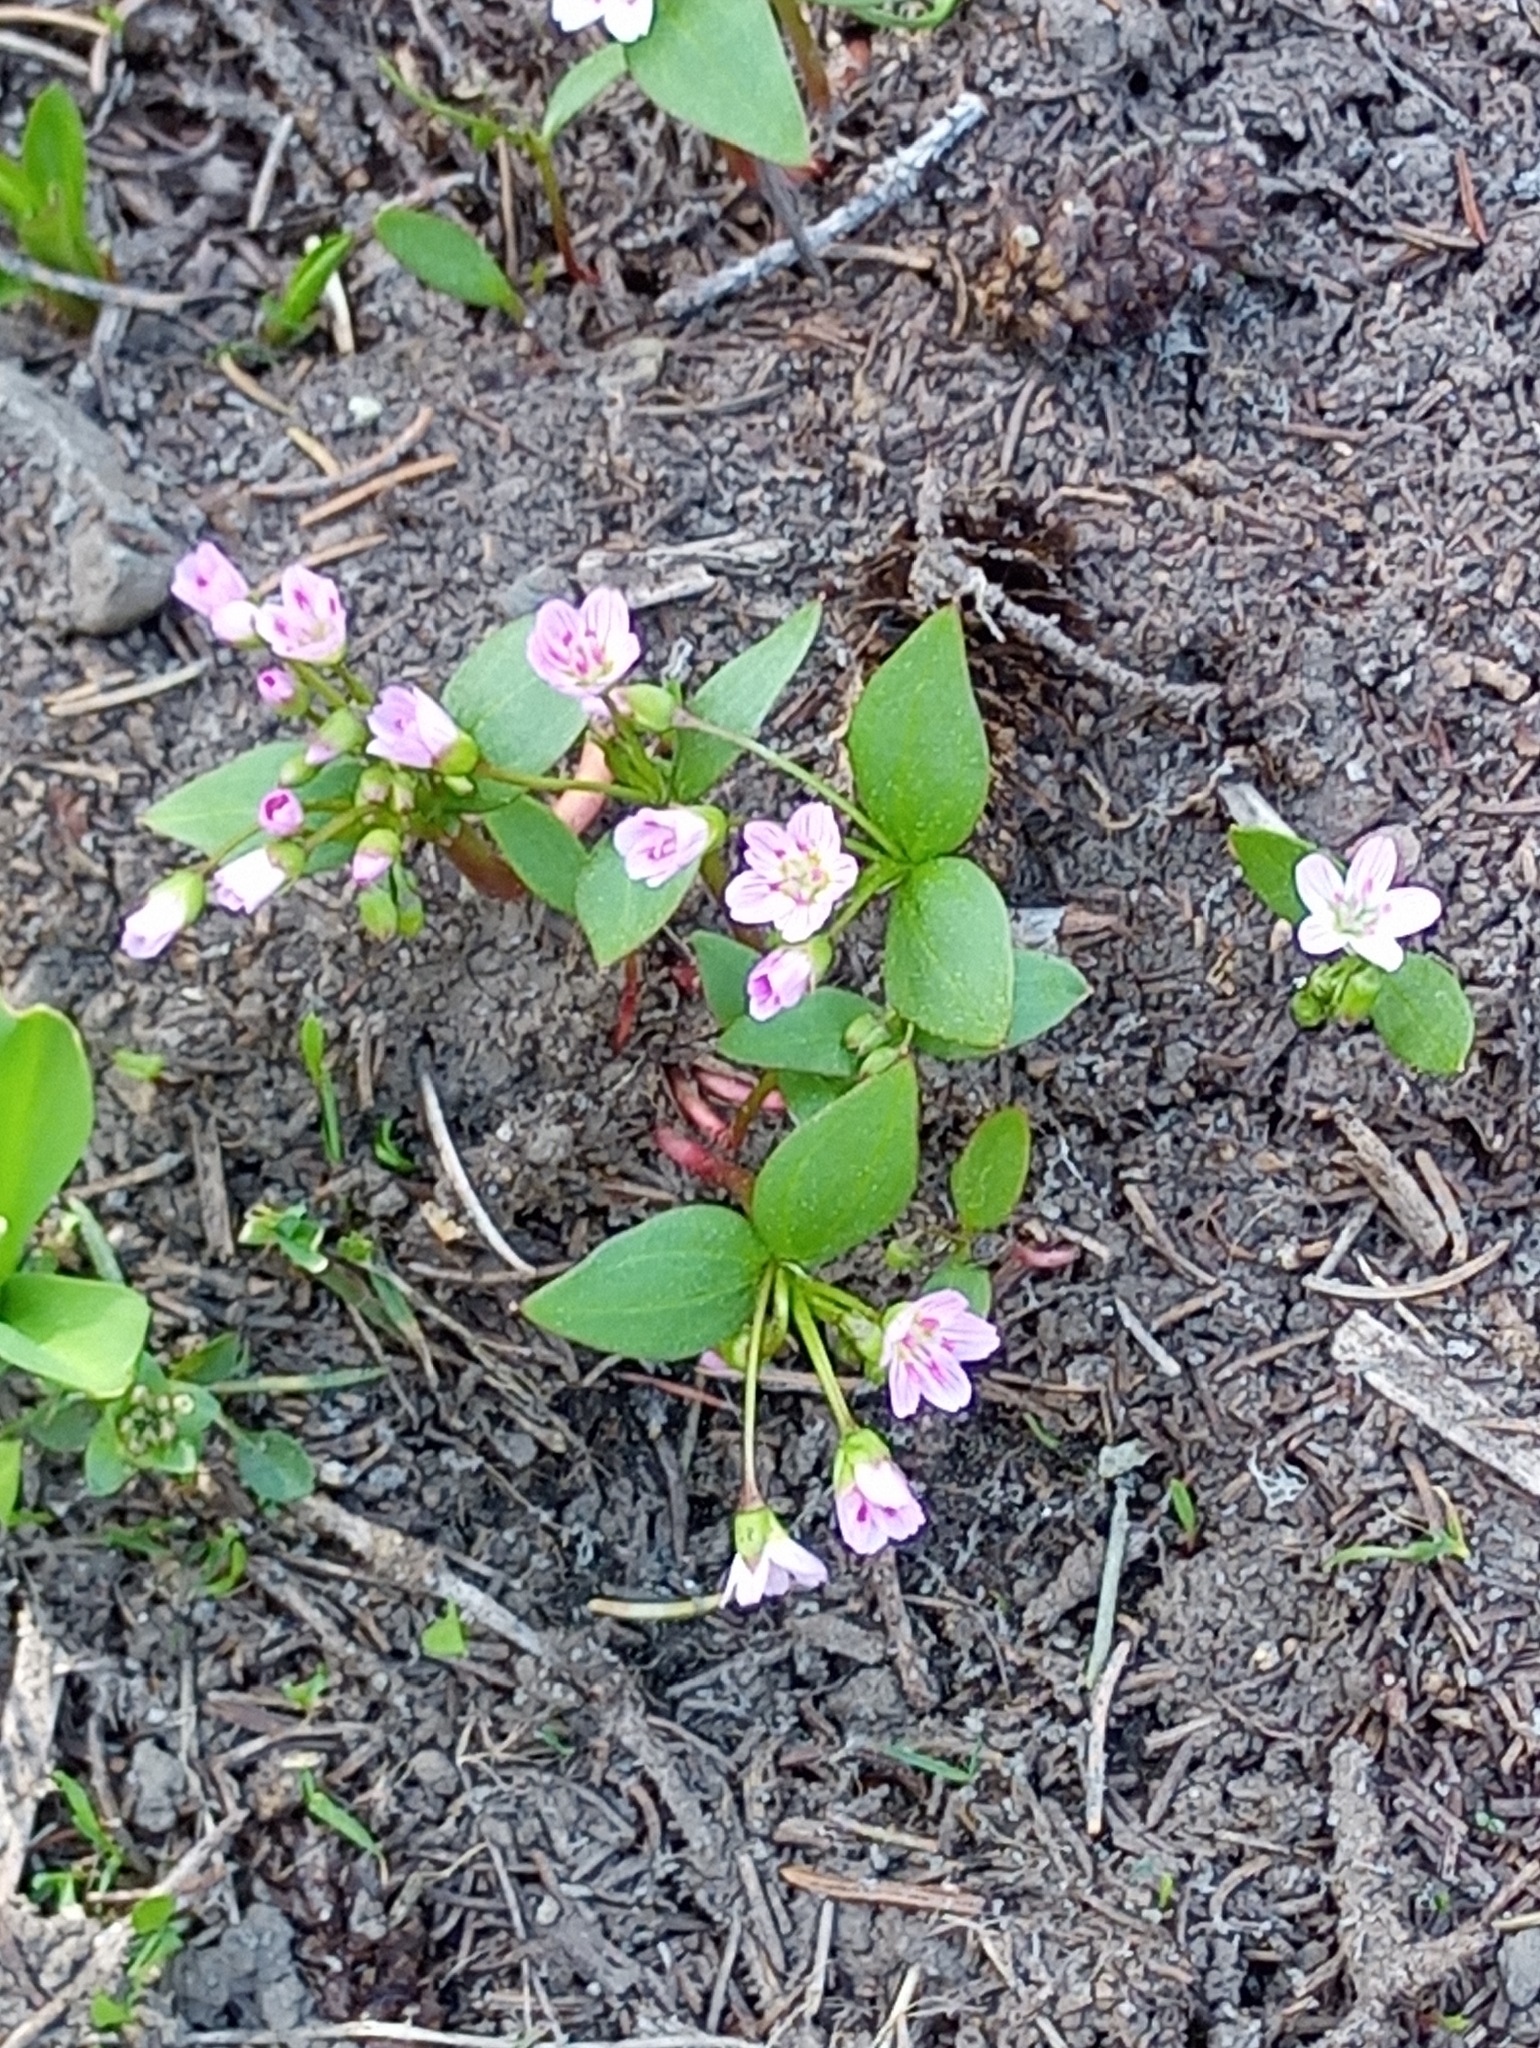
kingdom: Plantae
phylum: Tracheophyta
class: Magnoliopsida
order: Caryophyllales
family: Montiaceae
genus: Claytonia
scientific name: Claytonia lanceolata
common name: Western spring-beauty
